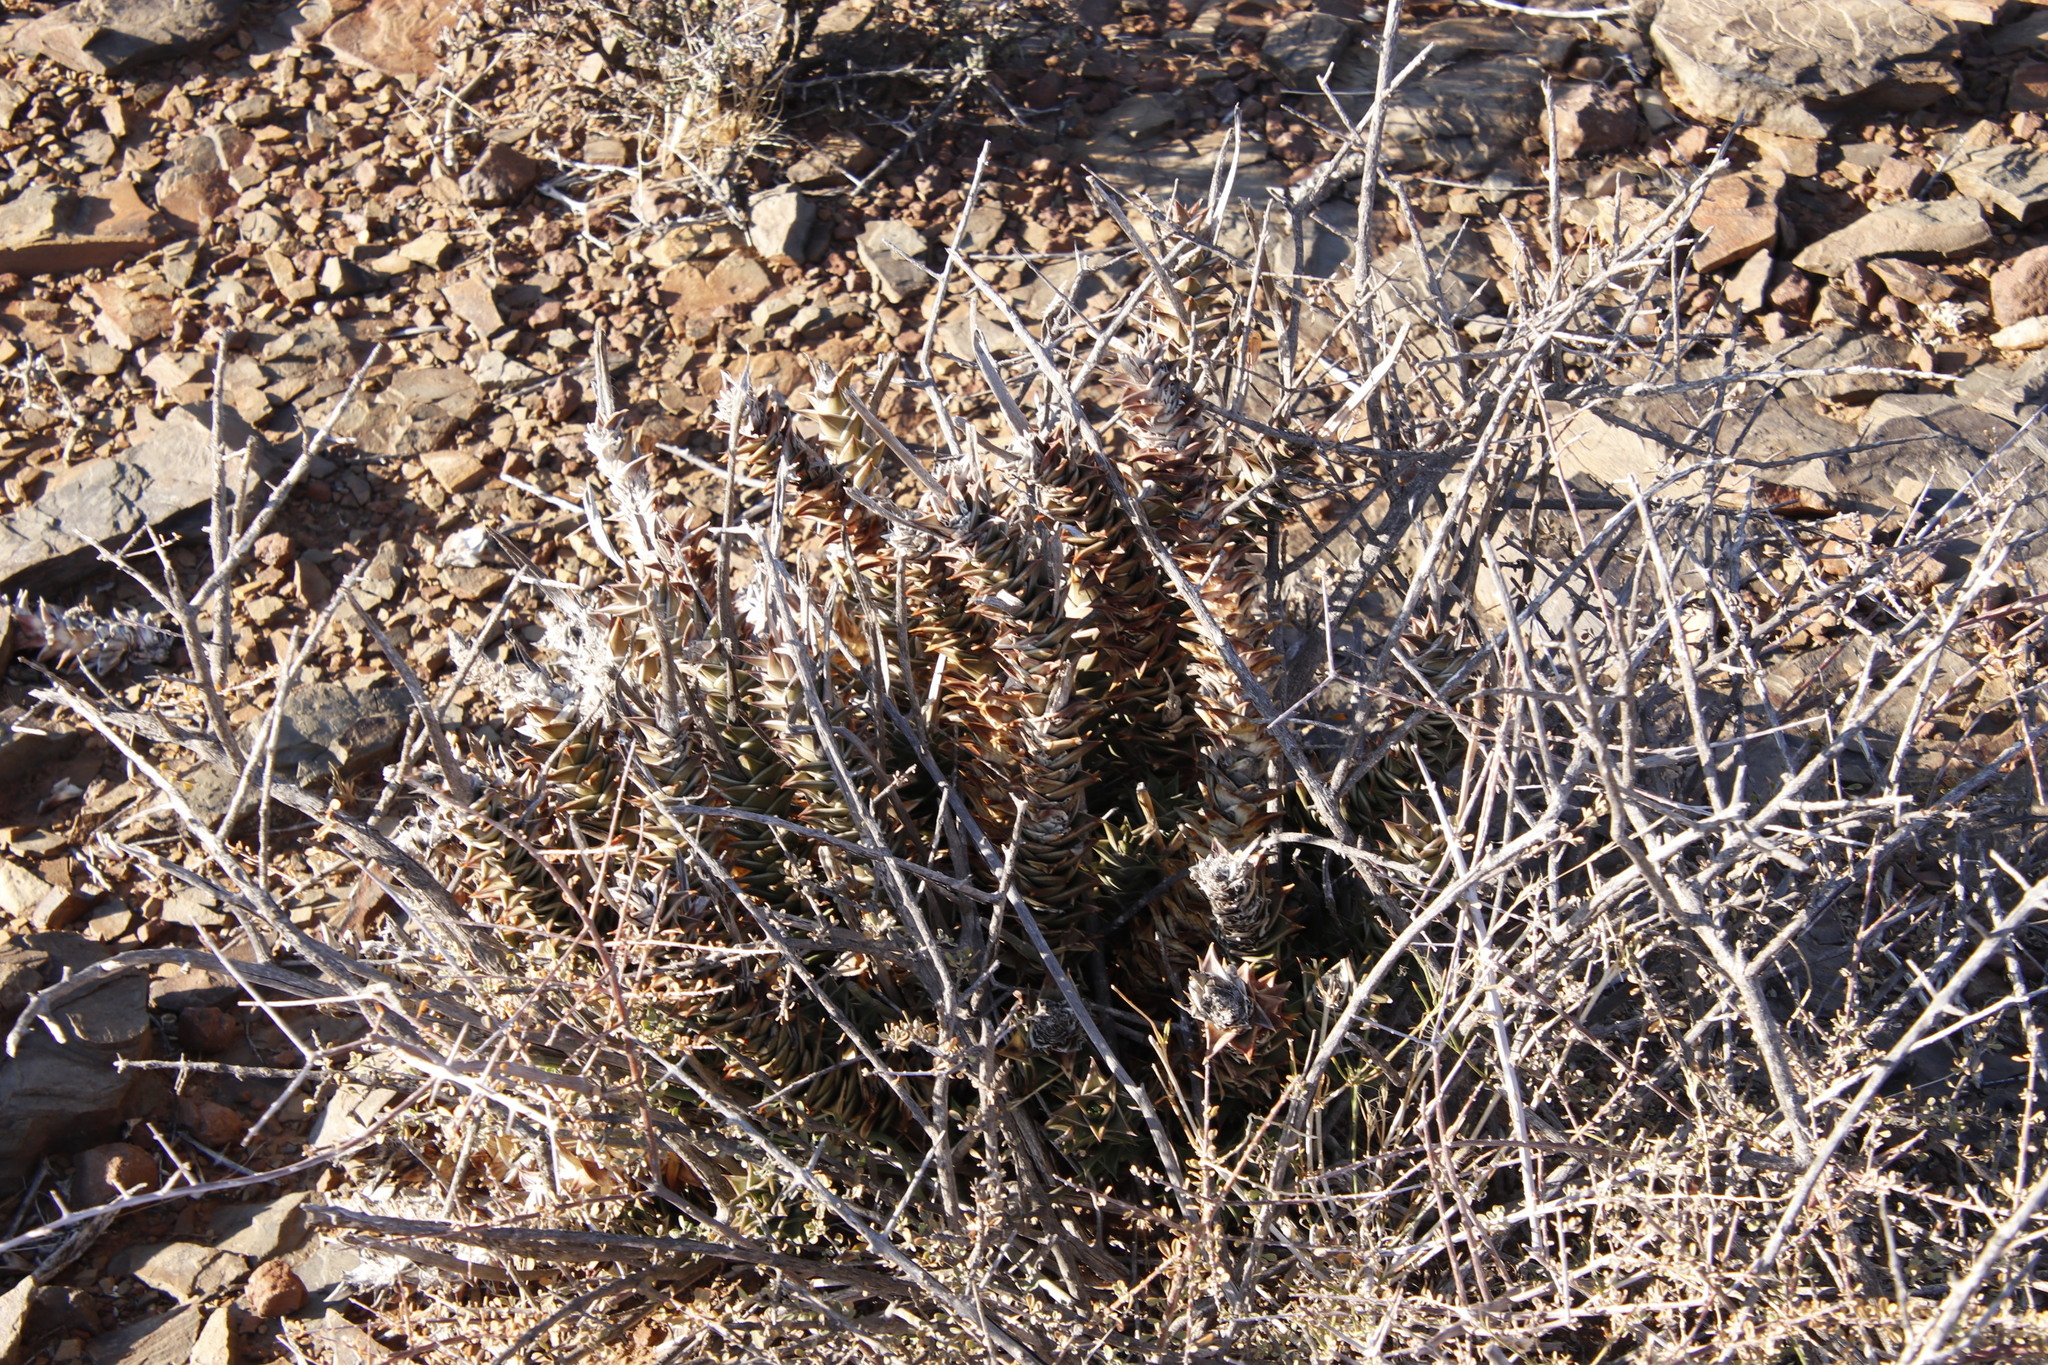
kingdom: Plantae
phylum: Tracheophyta
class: Liliopsida
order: Asparagales
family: Asphodelaceae
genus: Astroloba
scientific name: Astroloba robusta
